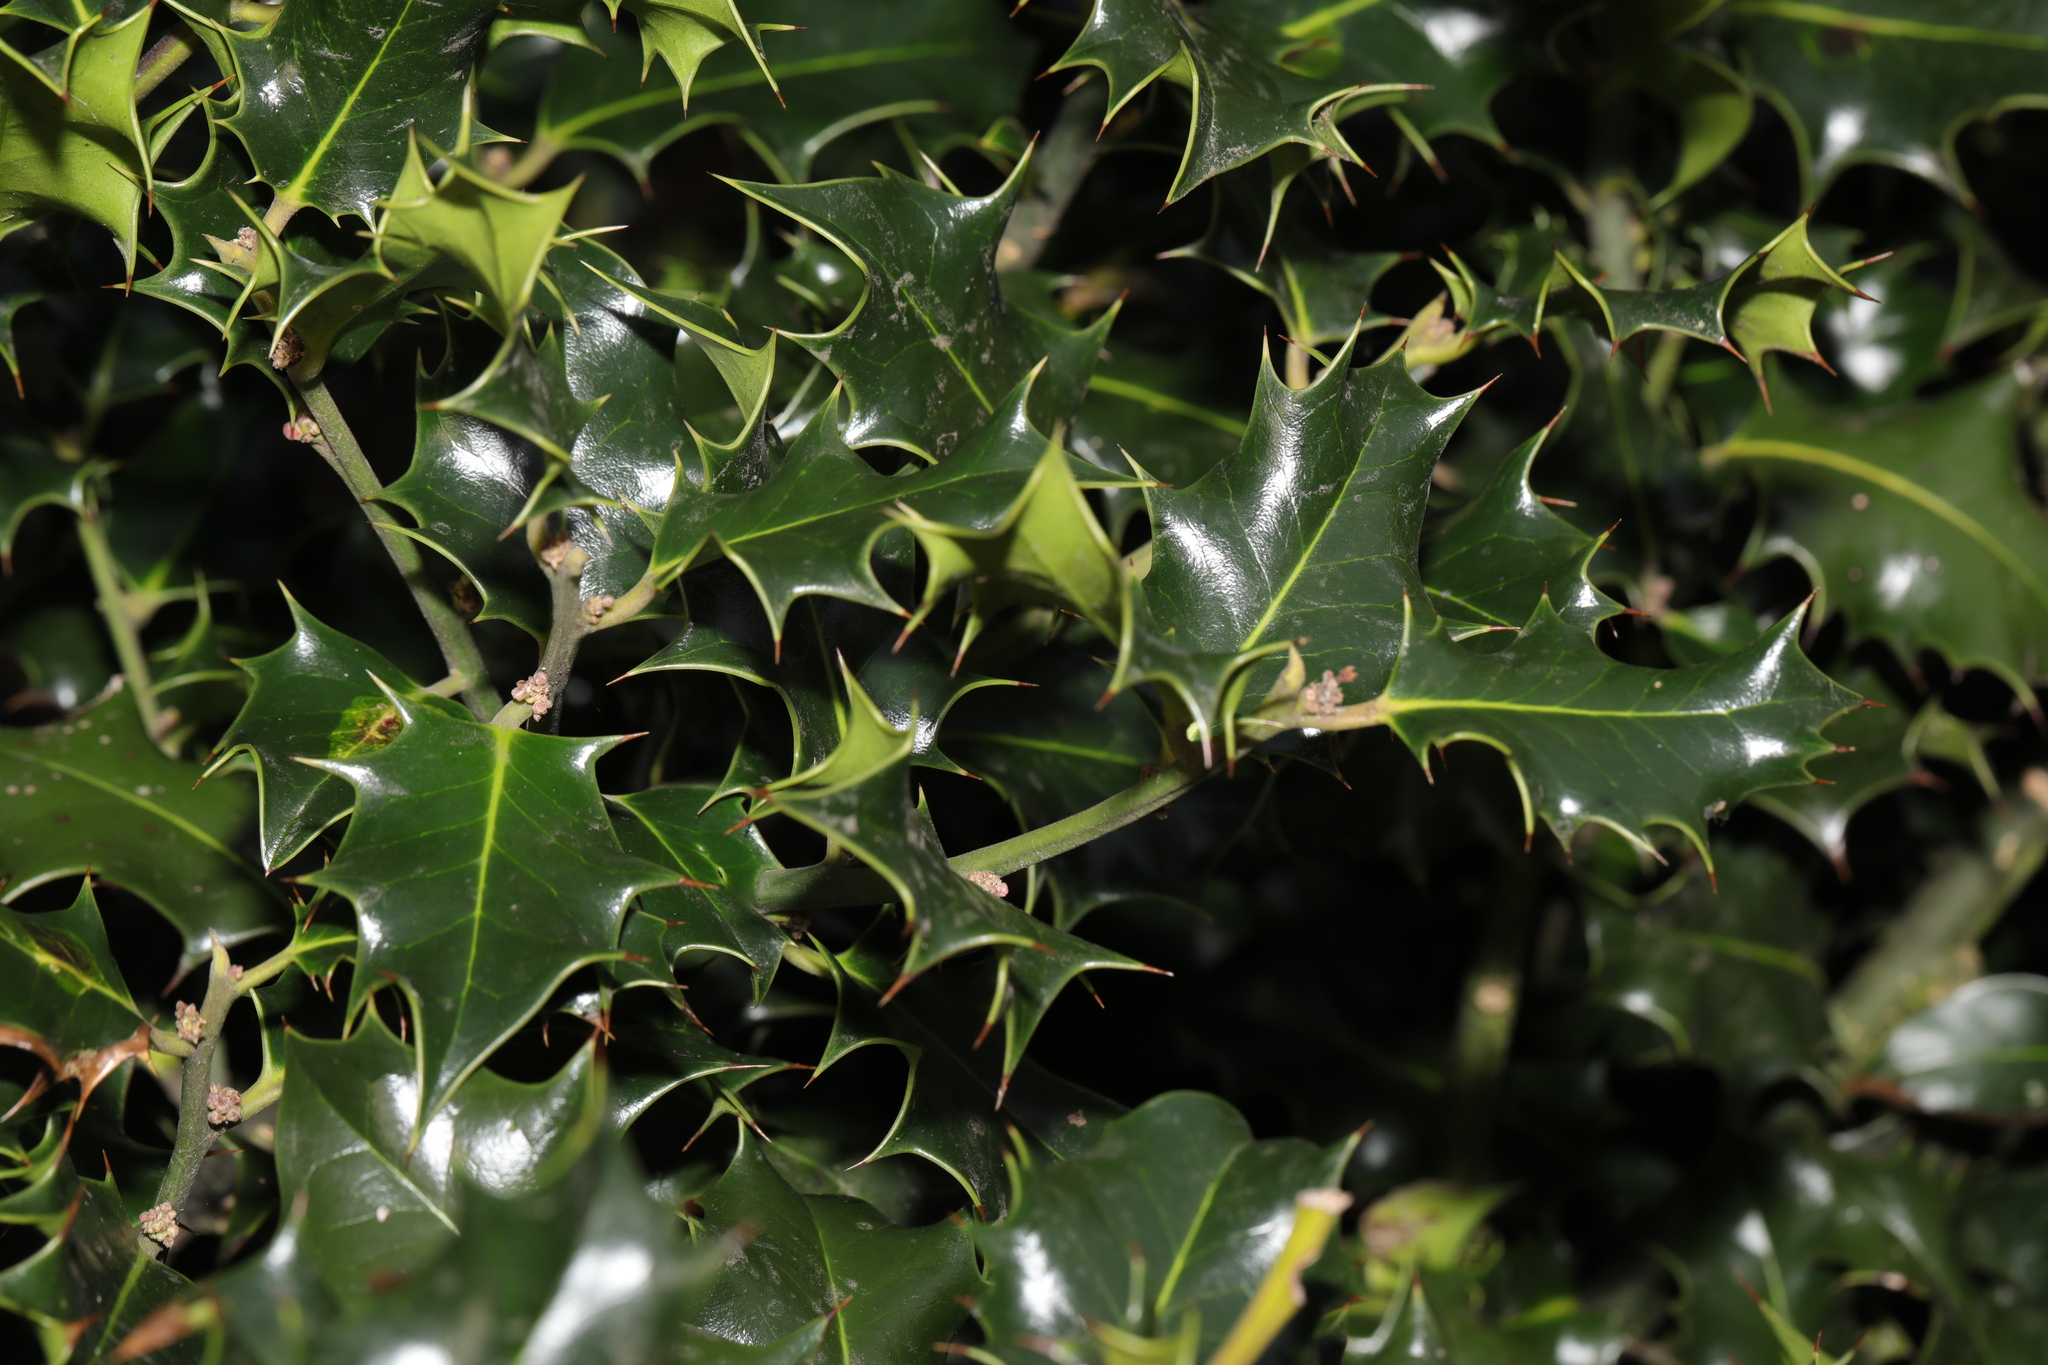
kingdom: Plantae
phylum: Tracheophyta
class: Magnoliopsida
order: Aquifoliales
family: Aquifoliaceae
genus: Ilex
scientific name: Ilex aquifolium
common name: English holly
